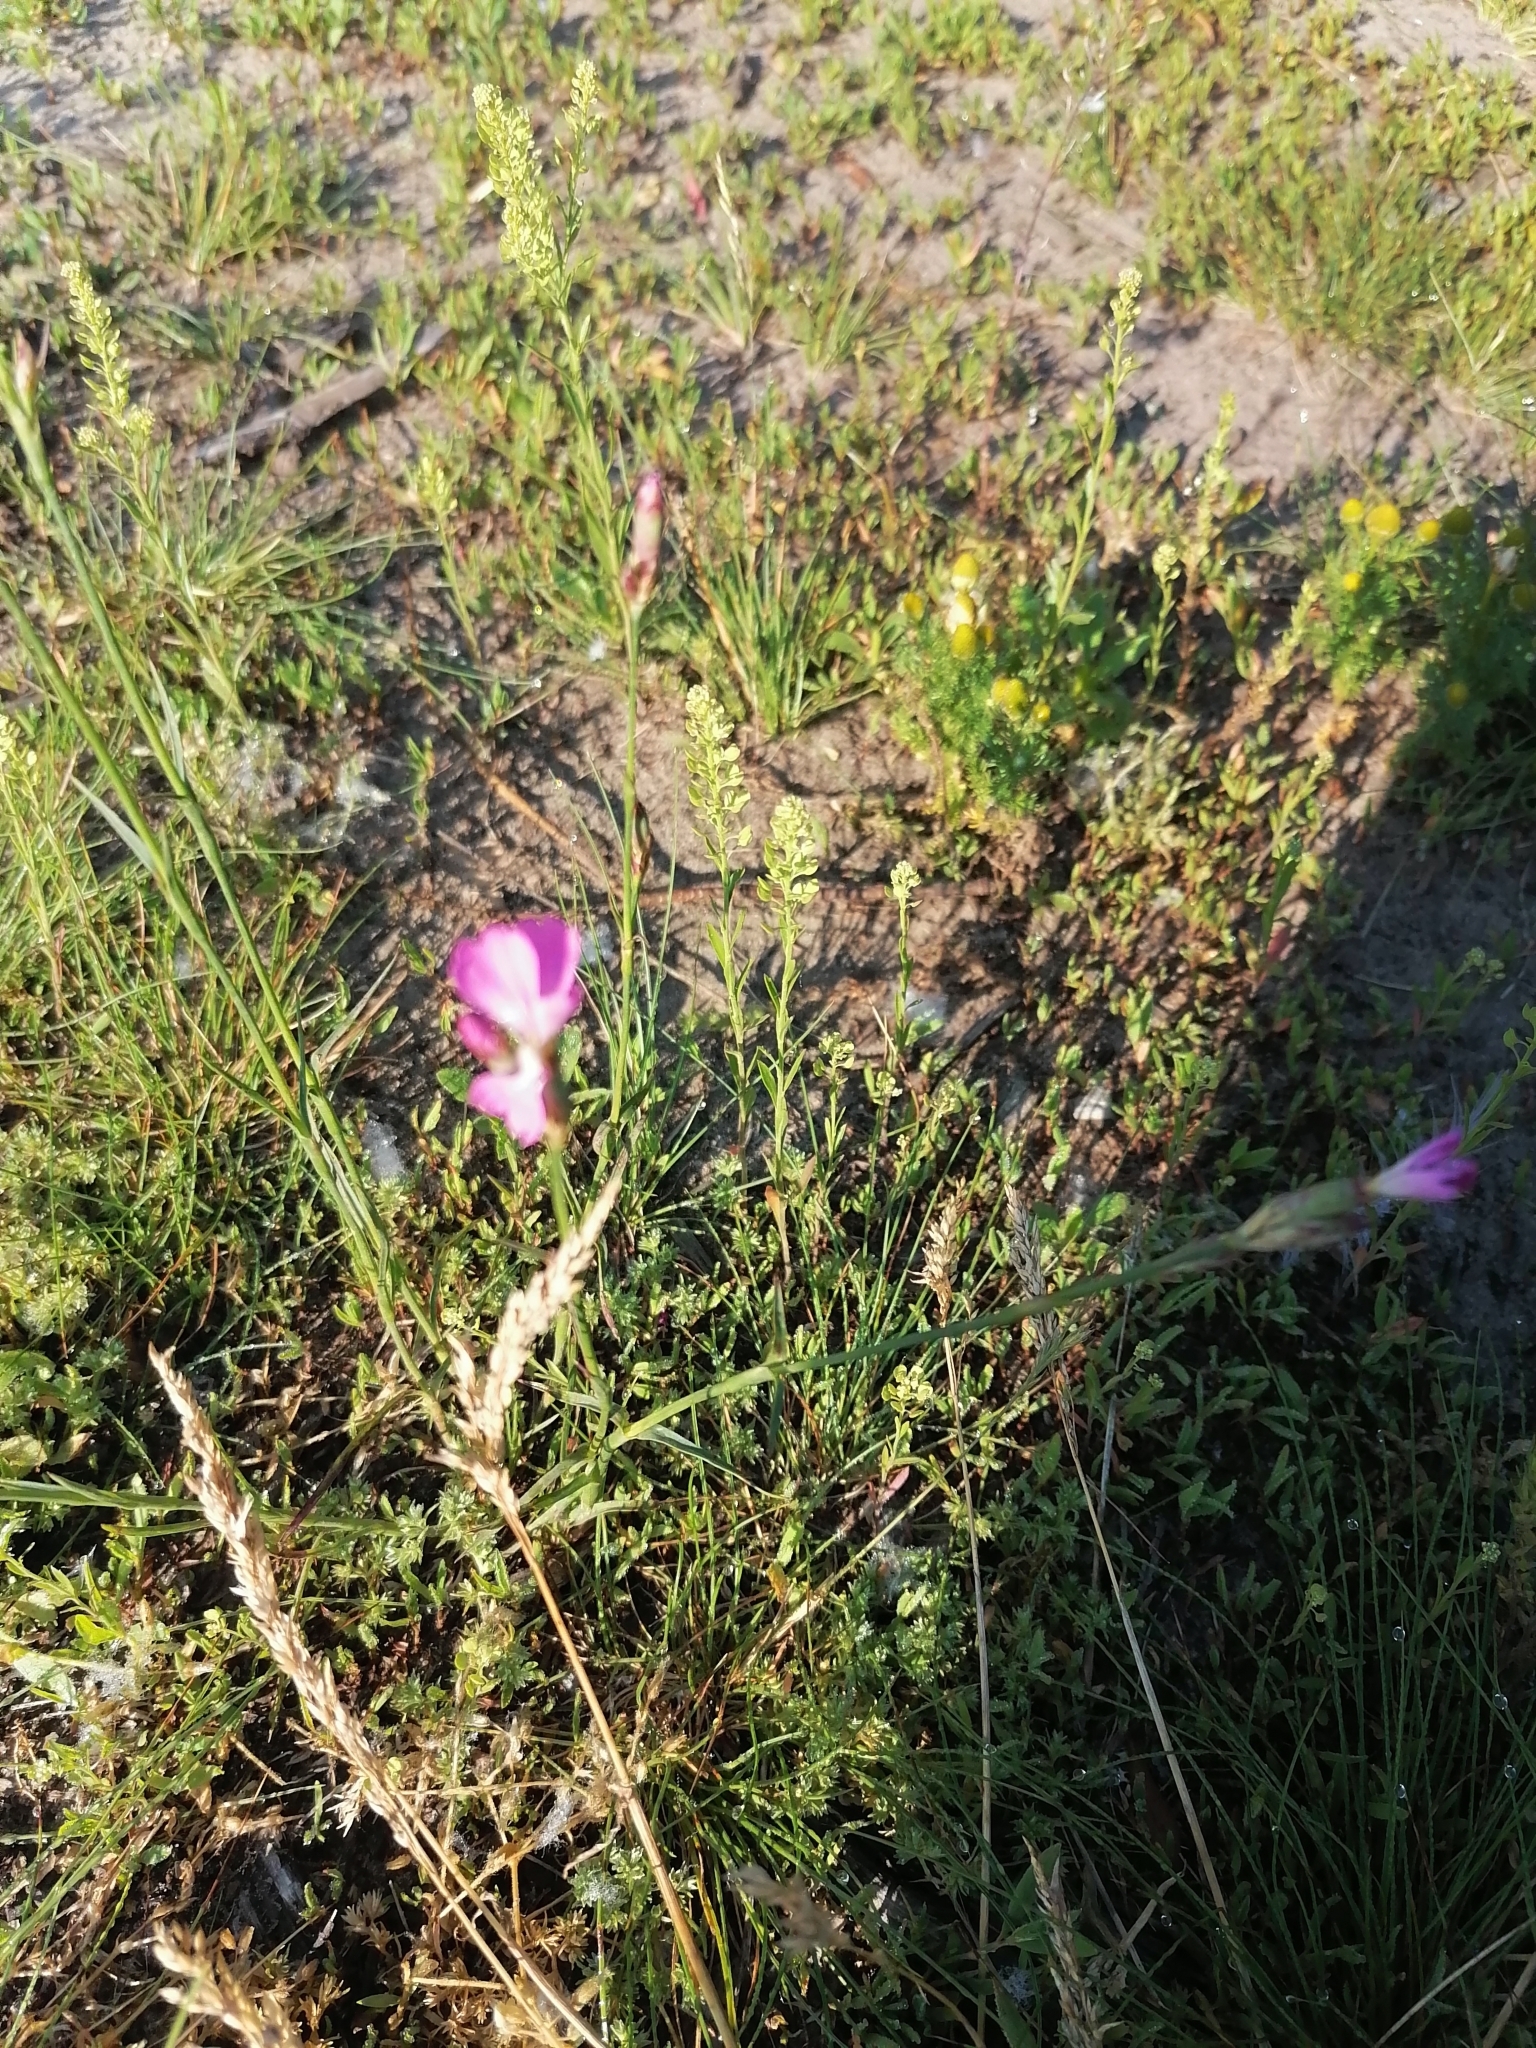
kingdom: Plantae
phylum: Tracheophyta
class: Magnoliopsida
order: Caryophyllales
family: Caryophyllaceae
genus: Dianthus
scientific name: Dianthus borbasii
